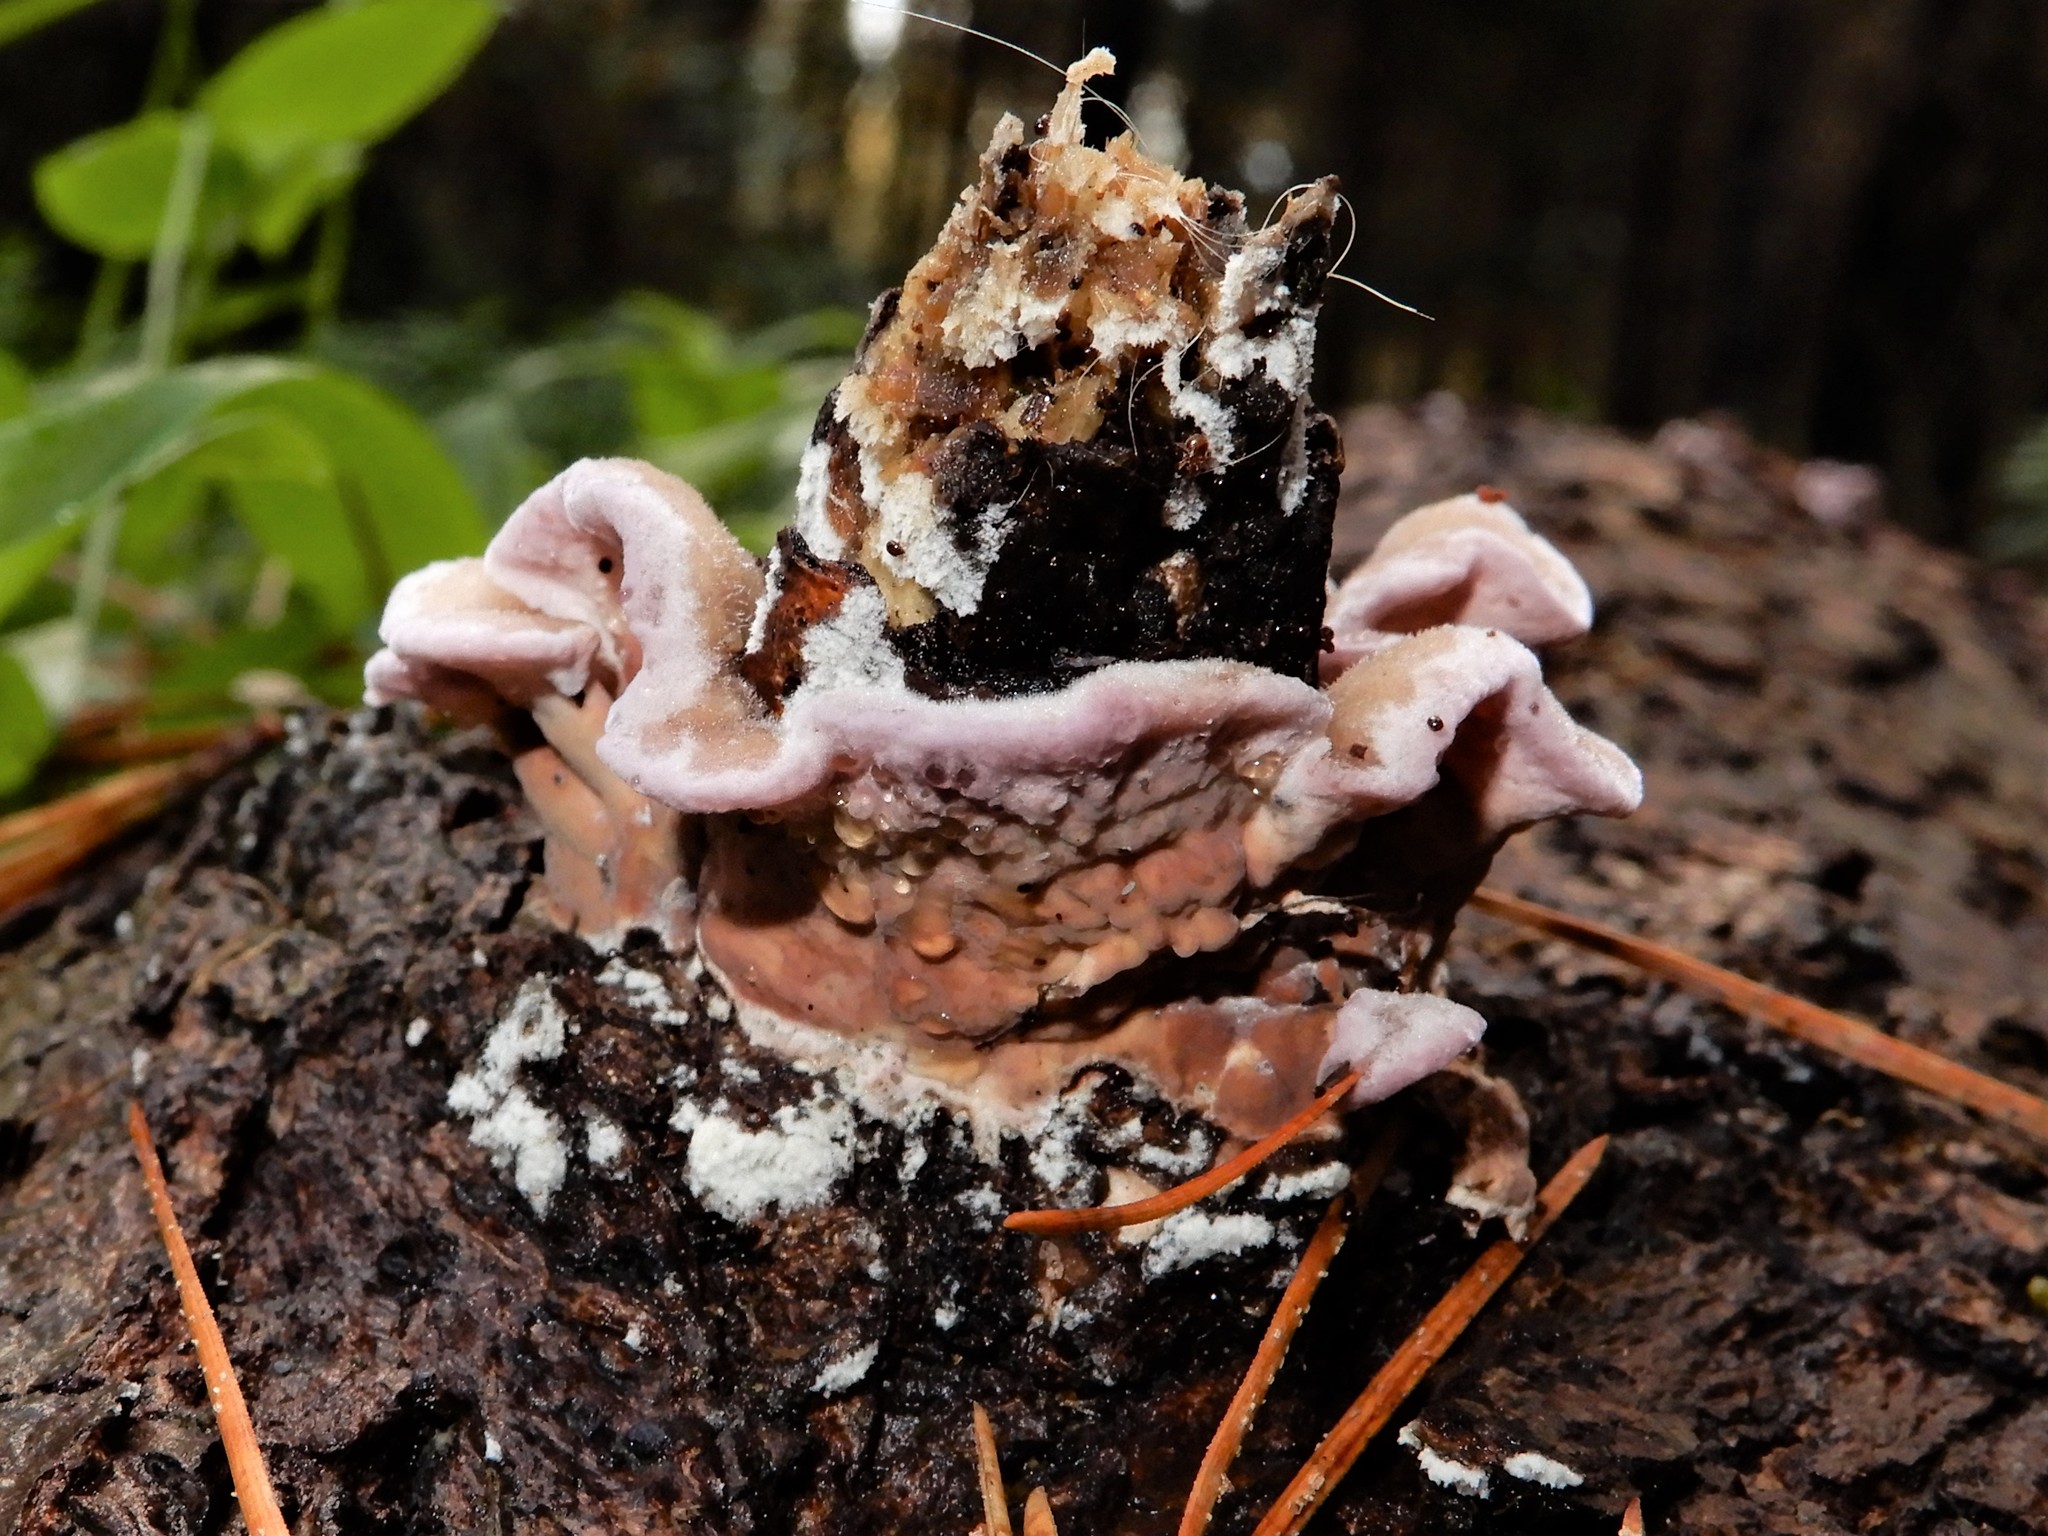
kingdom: Fungi
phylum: Basidiomycota
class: Agaricomycetes
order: Agaricales
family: Cyphellaceae
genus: Chondrostereum
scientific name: Chondrostereum purpureum
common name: Silver leaf disease
